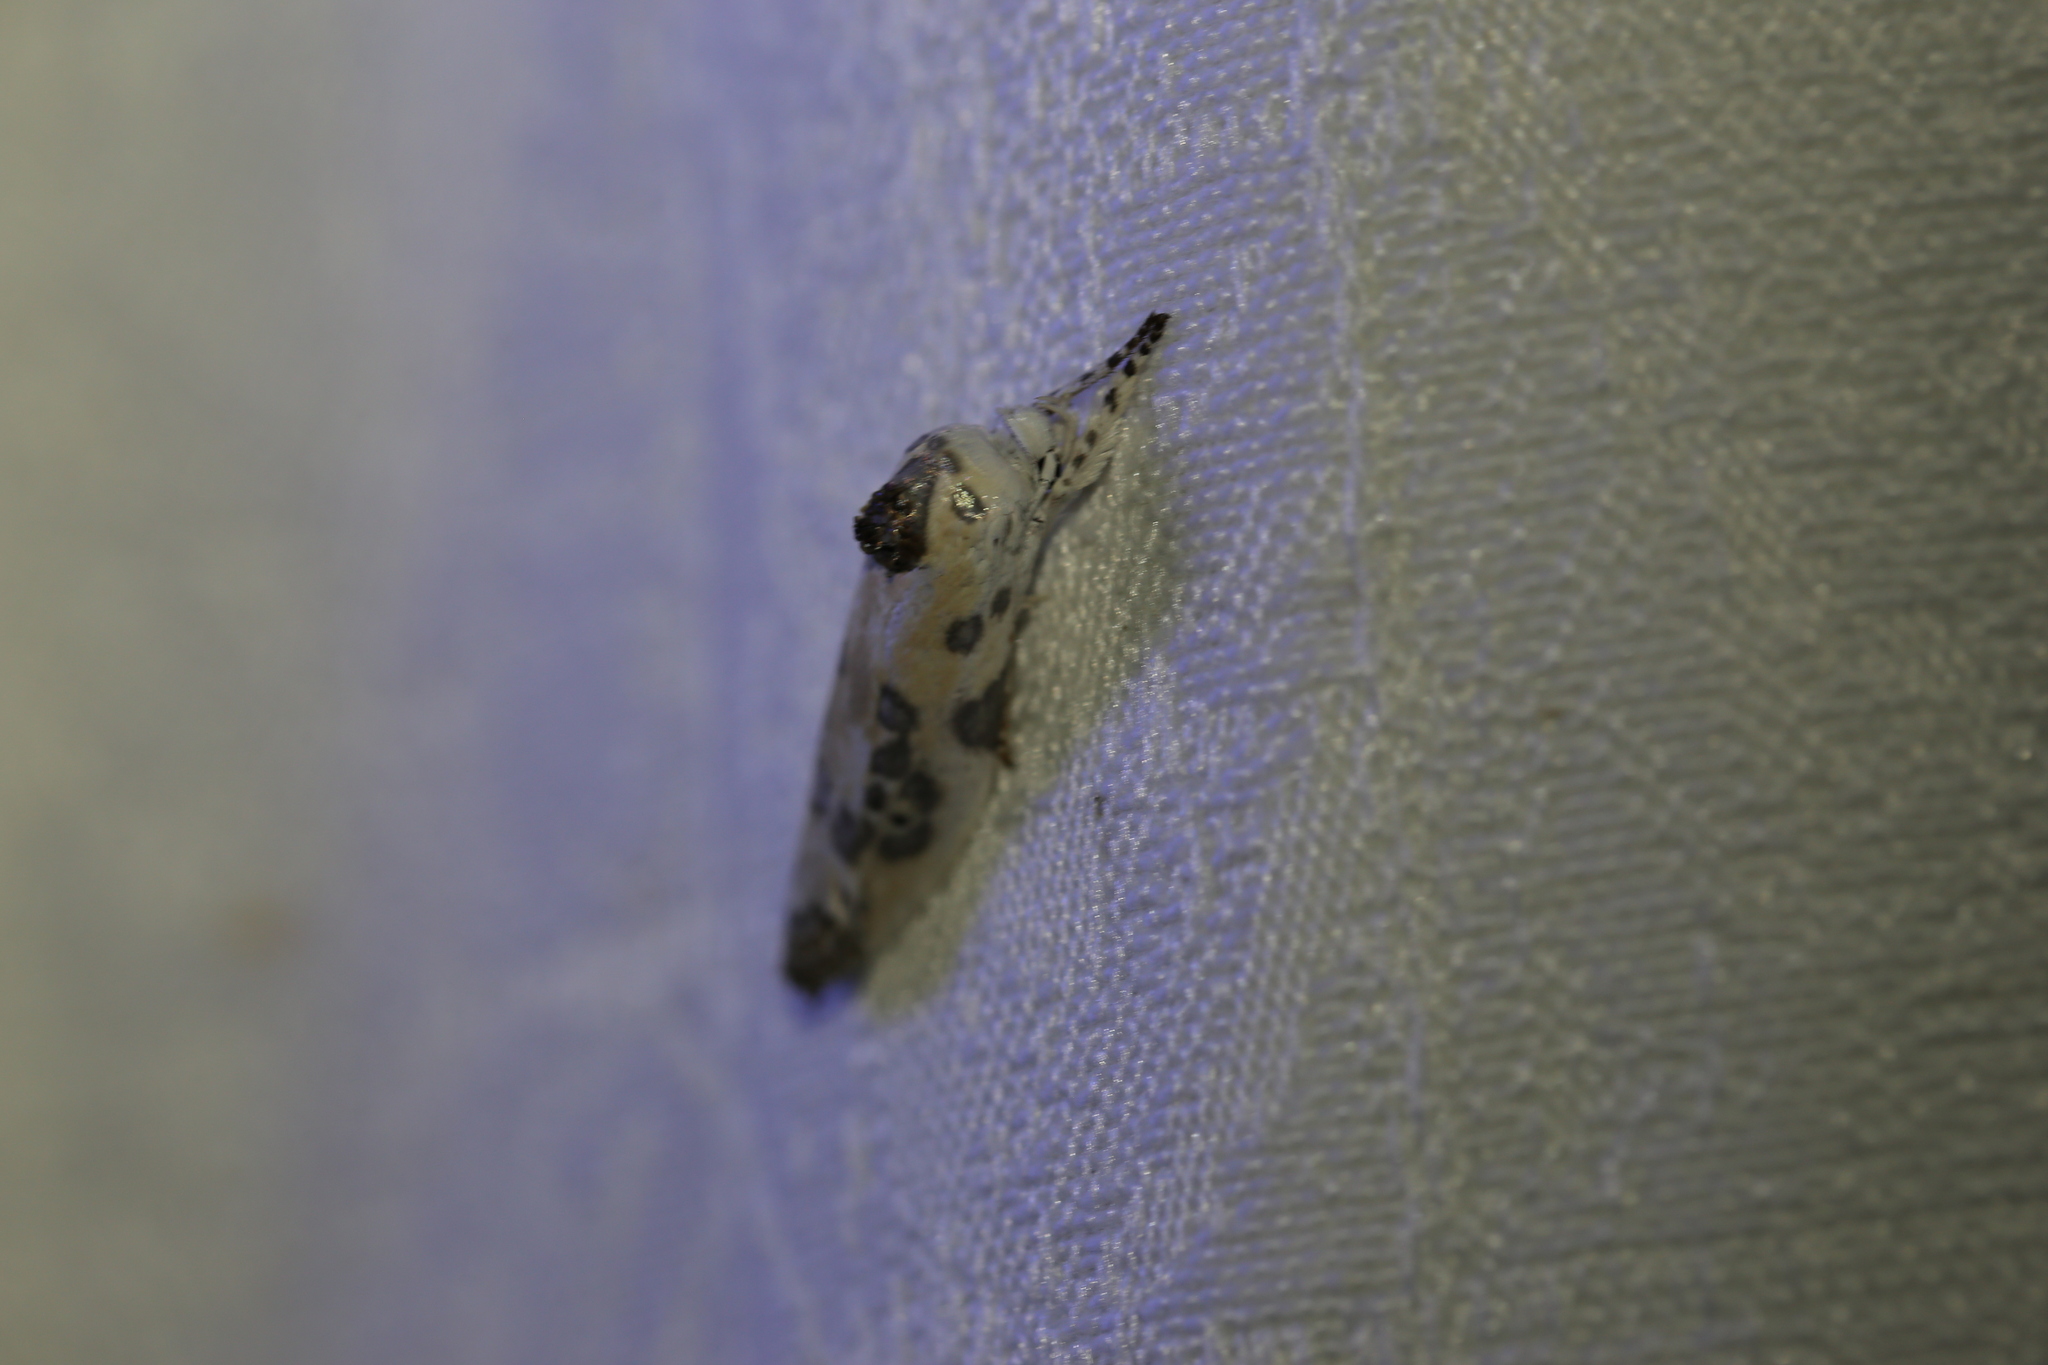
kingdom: Animalia
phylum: Arthropoda
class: Insecta
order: Lepidoptera
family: Xyloryctidae
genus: Arignota
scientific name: Arignota stercorata
